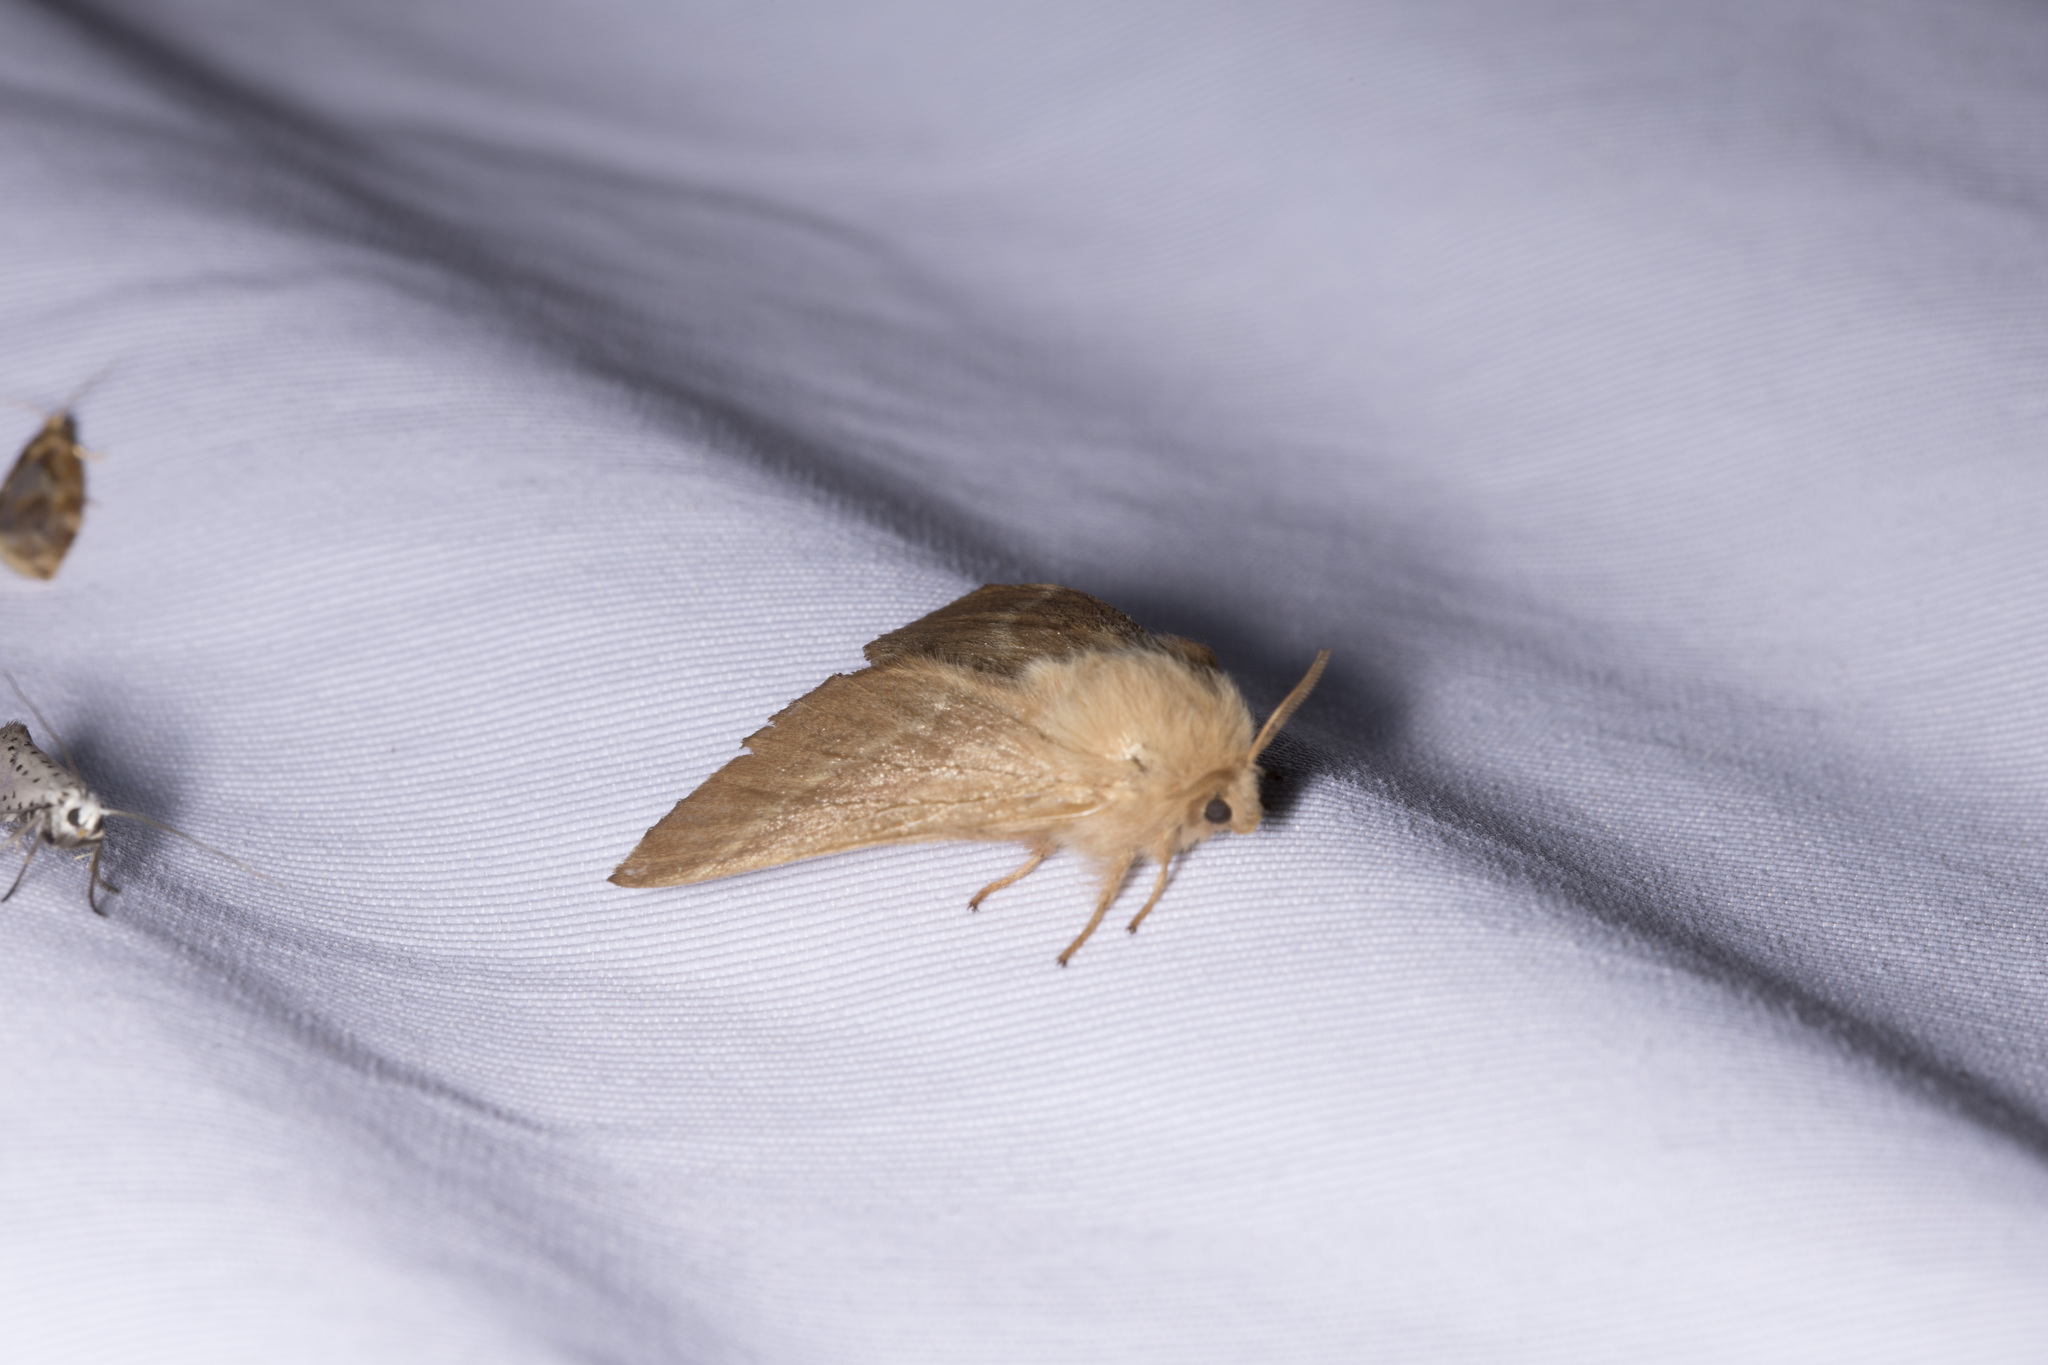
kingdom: Animalia
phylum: Arthropoda
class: Insecta
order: Lepidoptera
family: Lasiocampidae
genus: Malacosoma
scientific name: Malacosoma neustria
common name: The lackey
